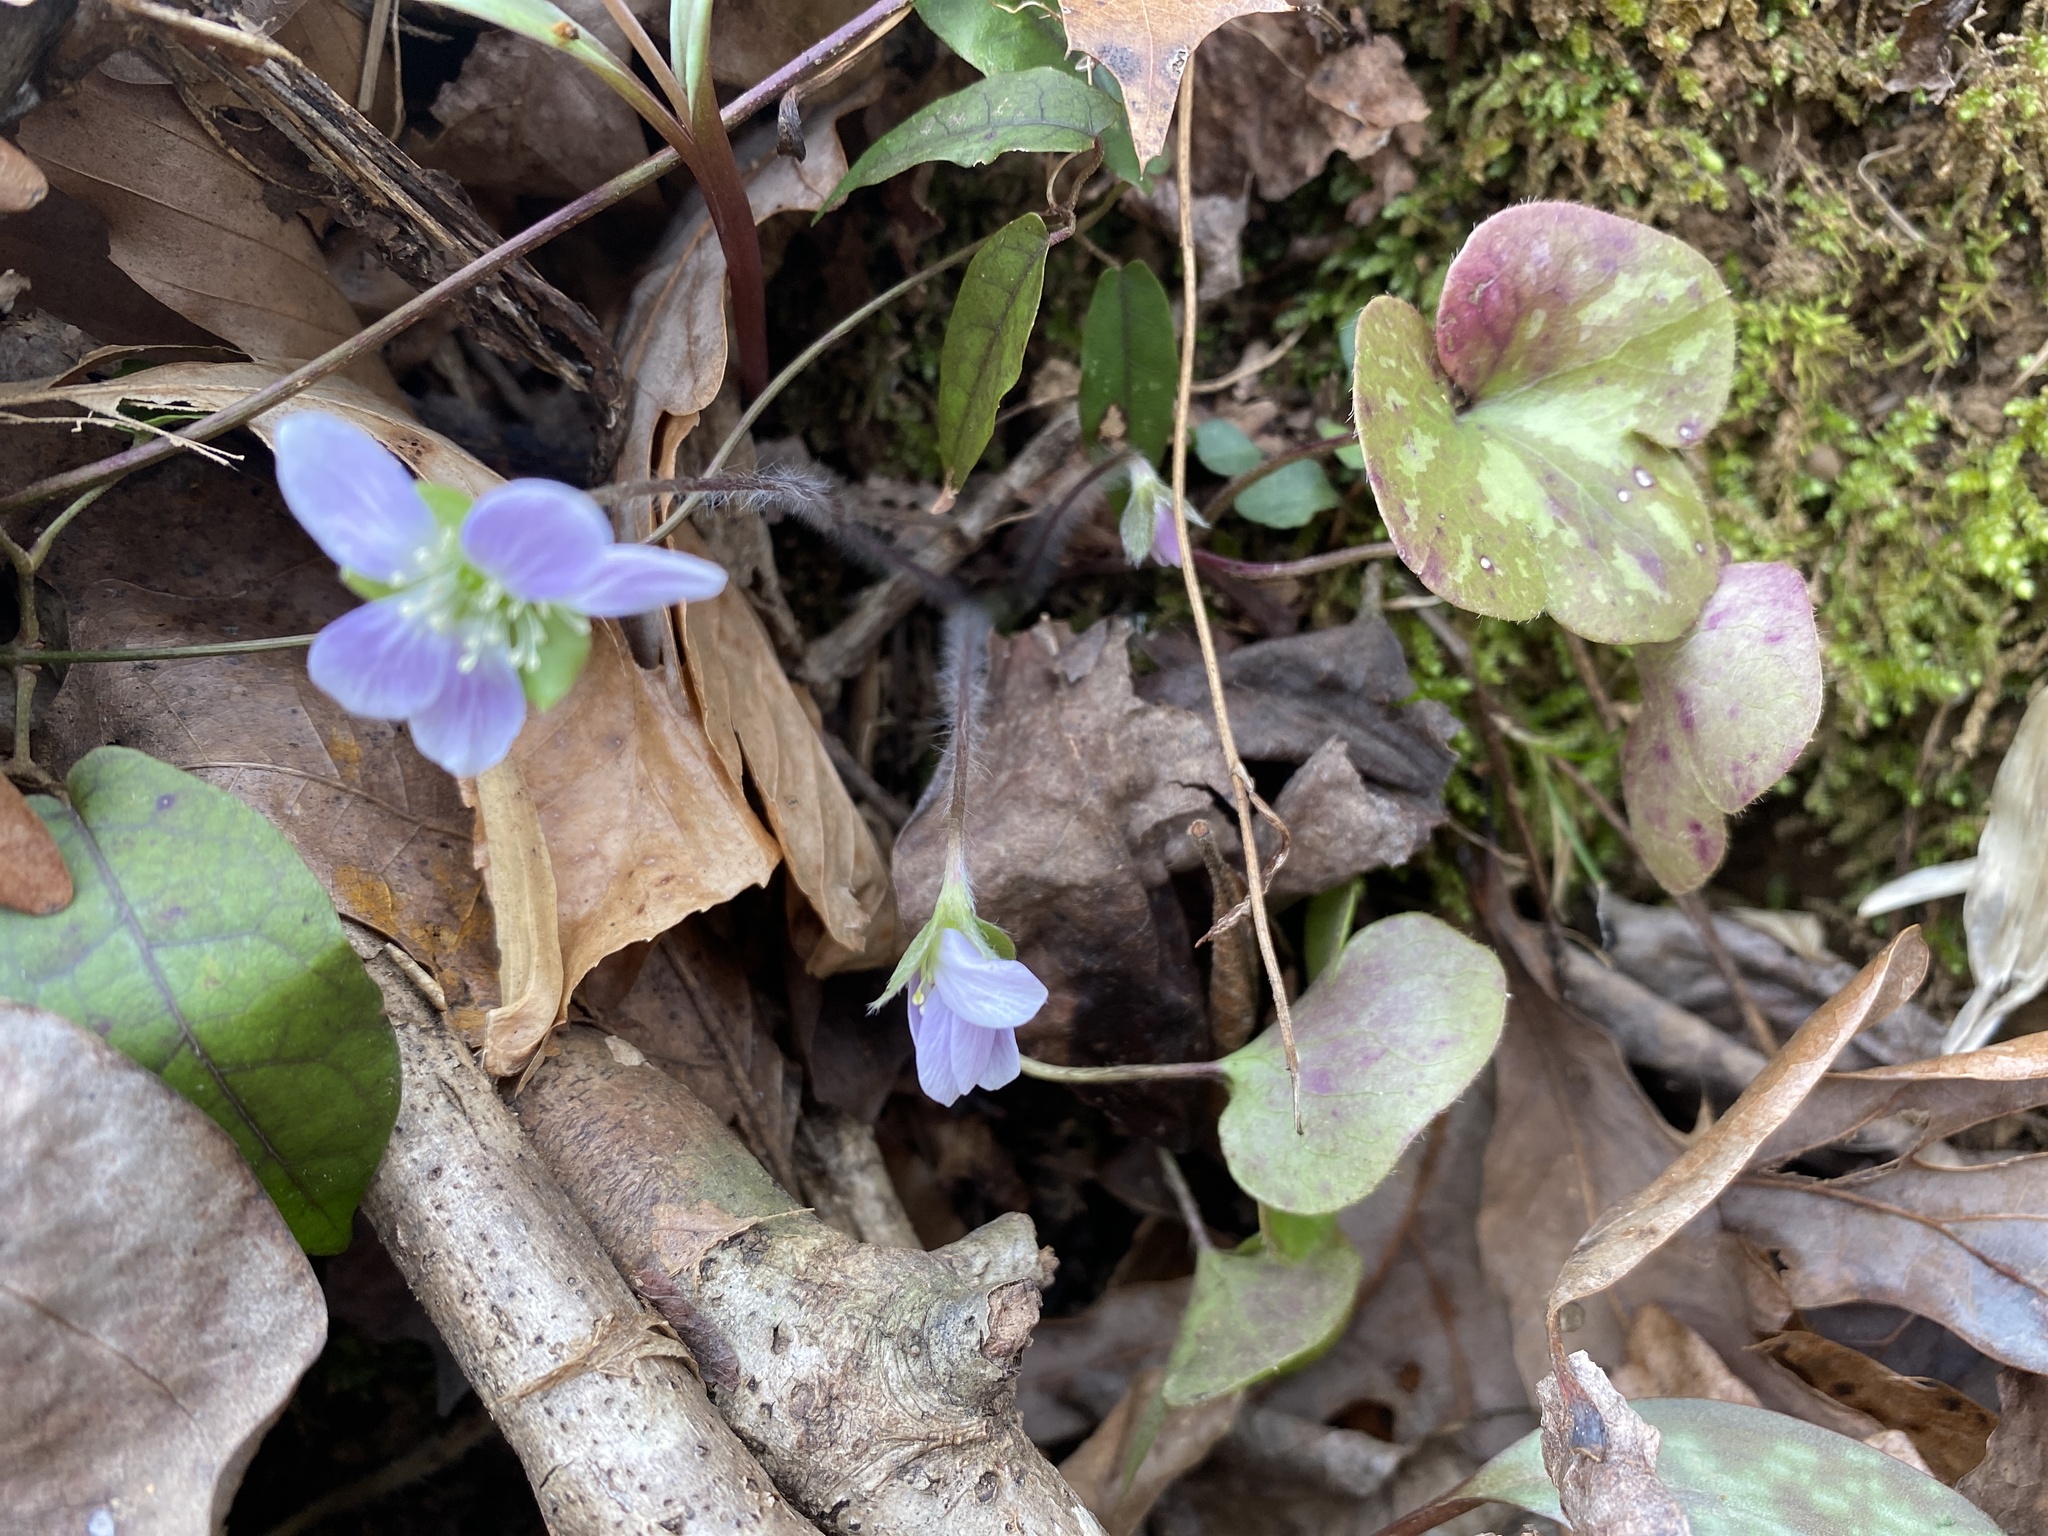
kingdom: Plantae
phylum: Tracheophyta
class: Magnoliopsida
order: Ranunculales
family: Ranunculaceae
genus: Hepatica
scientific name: Hepatica americana
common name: American hepatica
